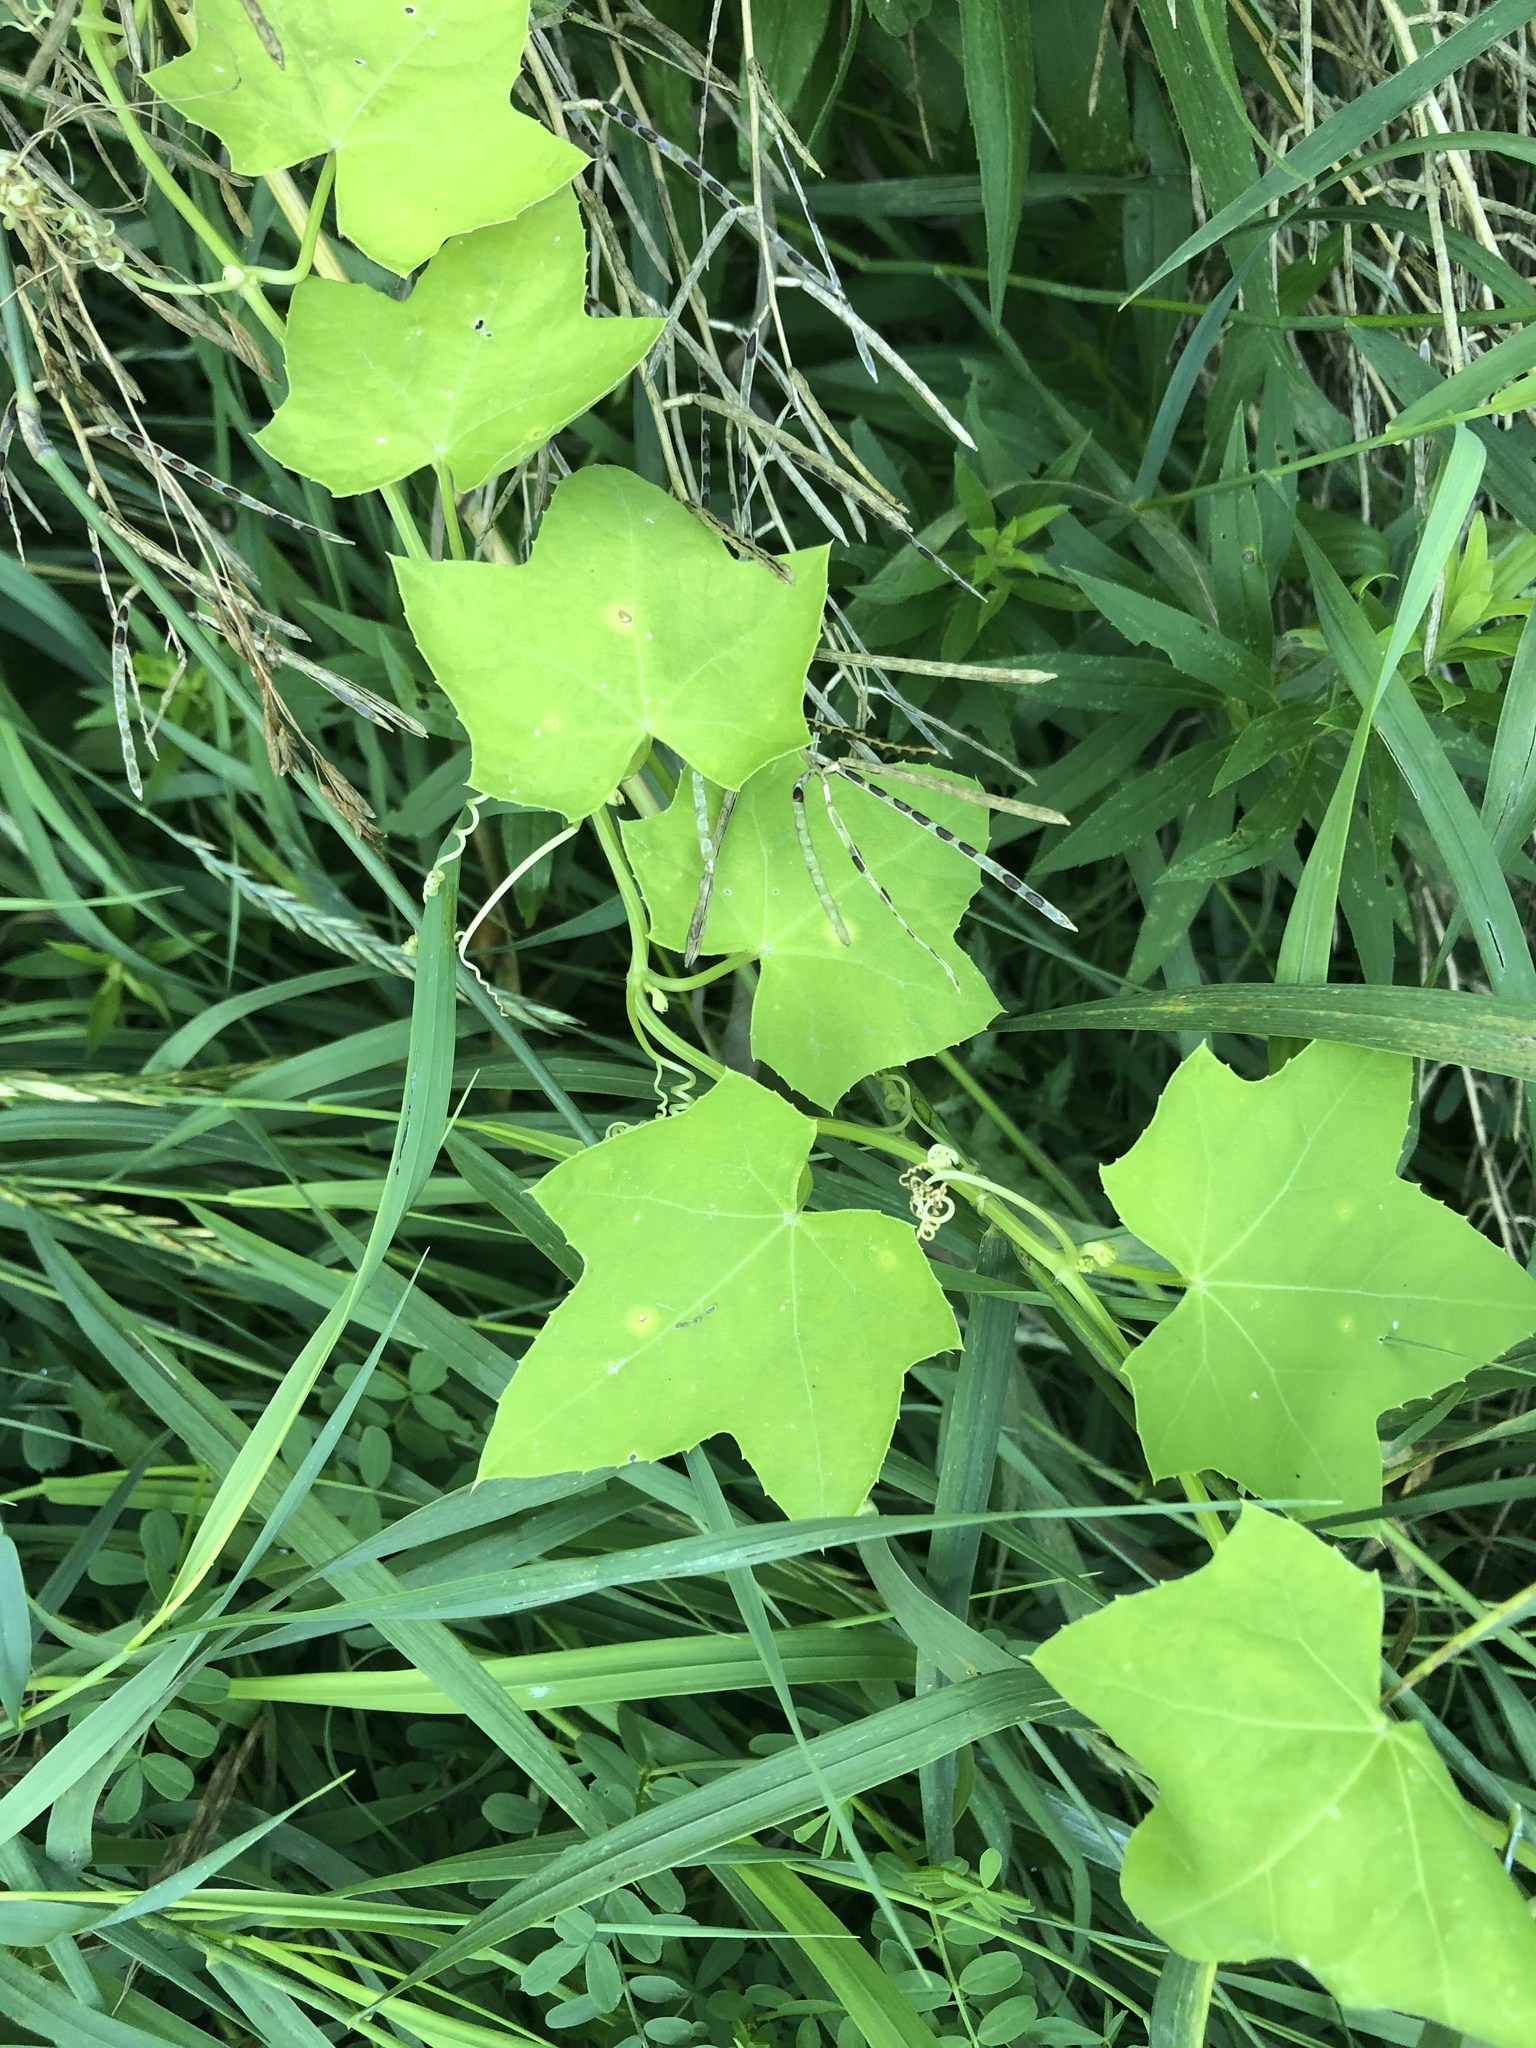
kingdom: Plantae
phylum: Tracheophyta
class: Magnoliopsida
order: Cucurbitales
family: Cucurbitaceae
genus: Echinocystis
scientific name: Echinocystis lobata
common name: Wild cucumber
